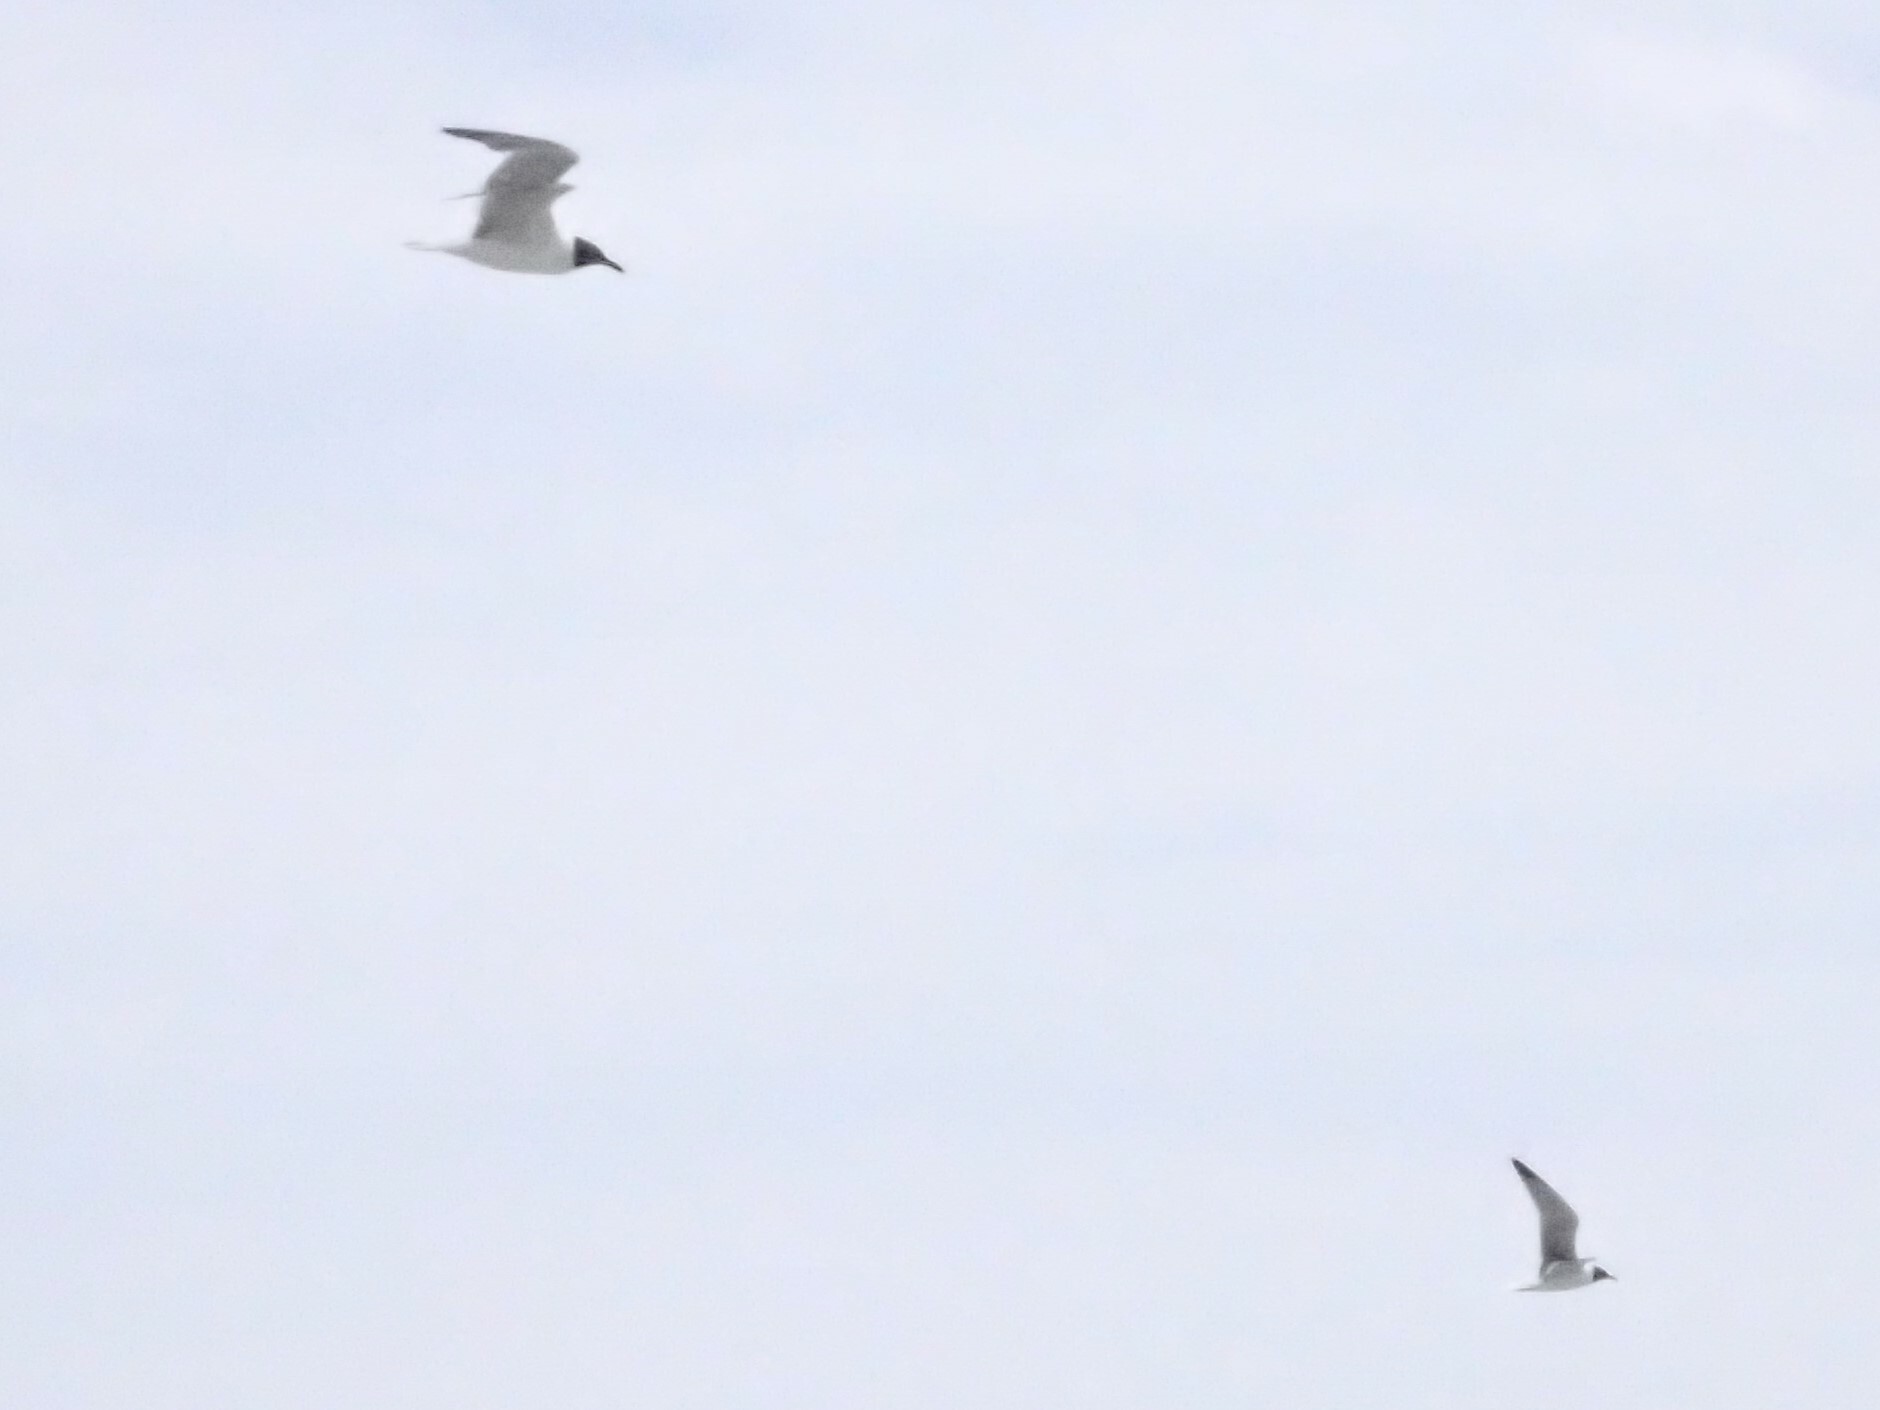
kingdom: Animalia
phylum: Chordata
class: Aves
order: Charadriiformes
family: Laridae
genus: Leucophaeus
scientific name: Leucophaeus atricilla
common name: Laughing gull
